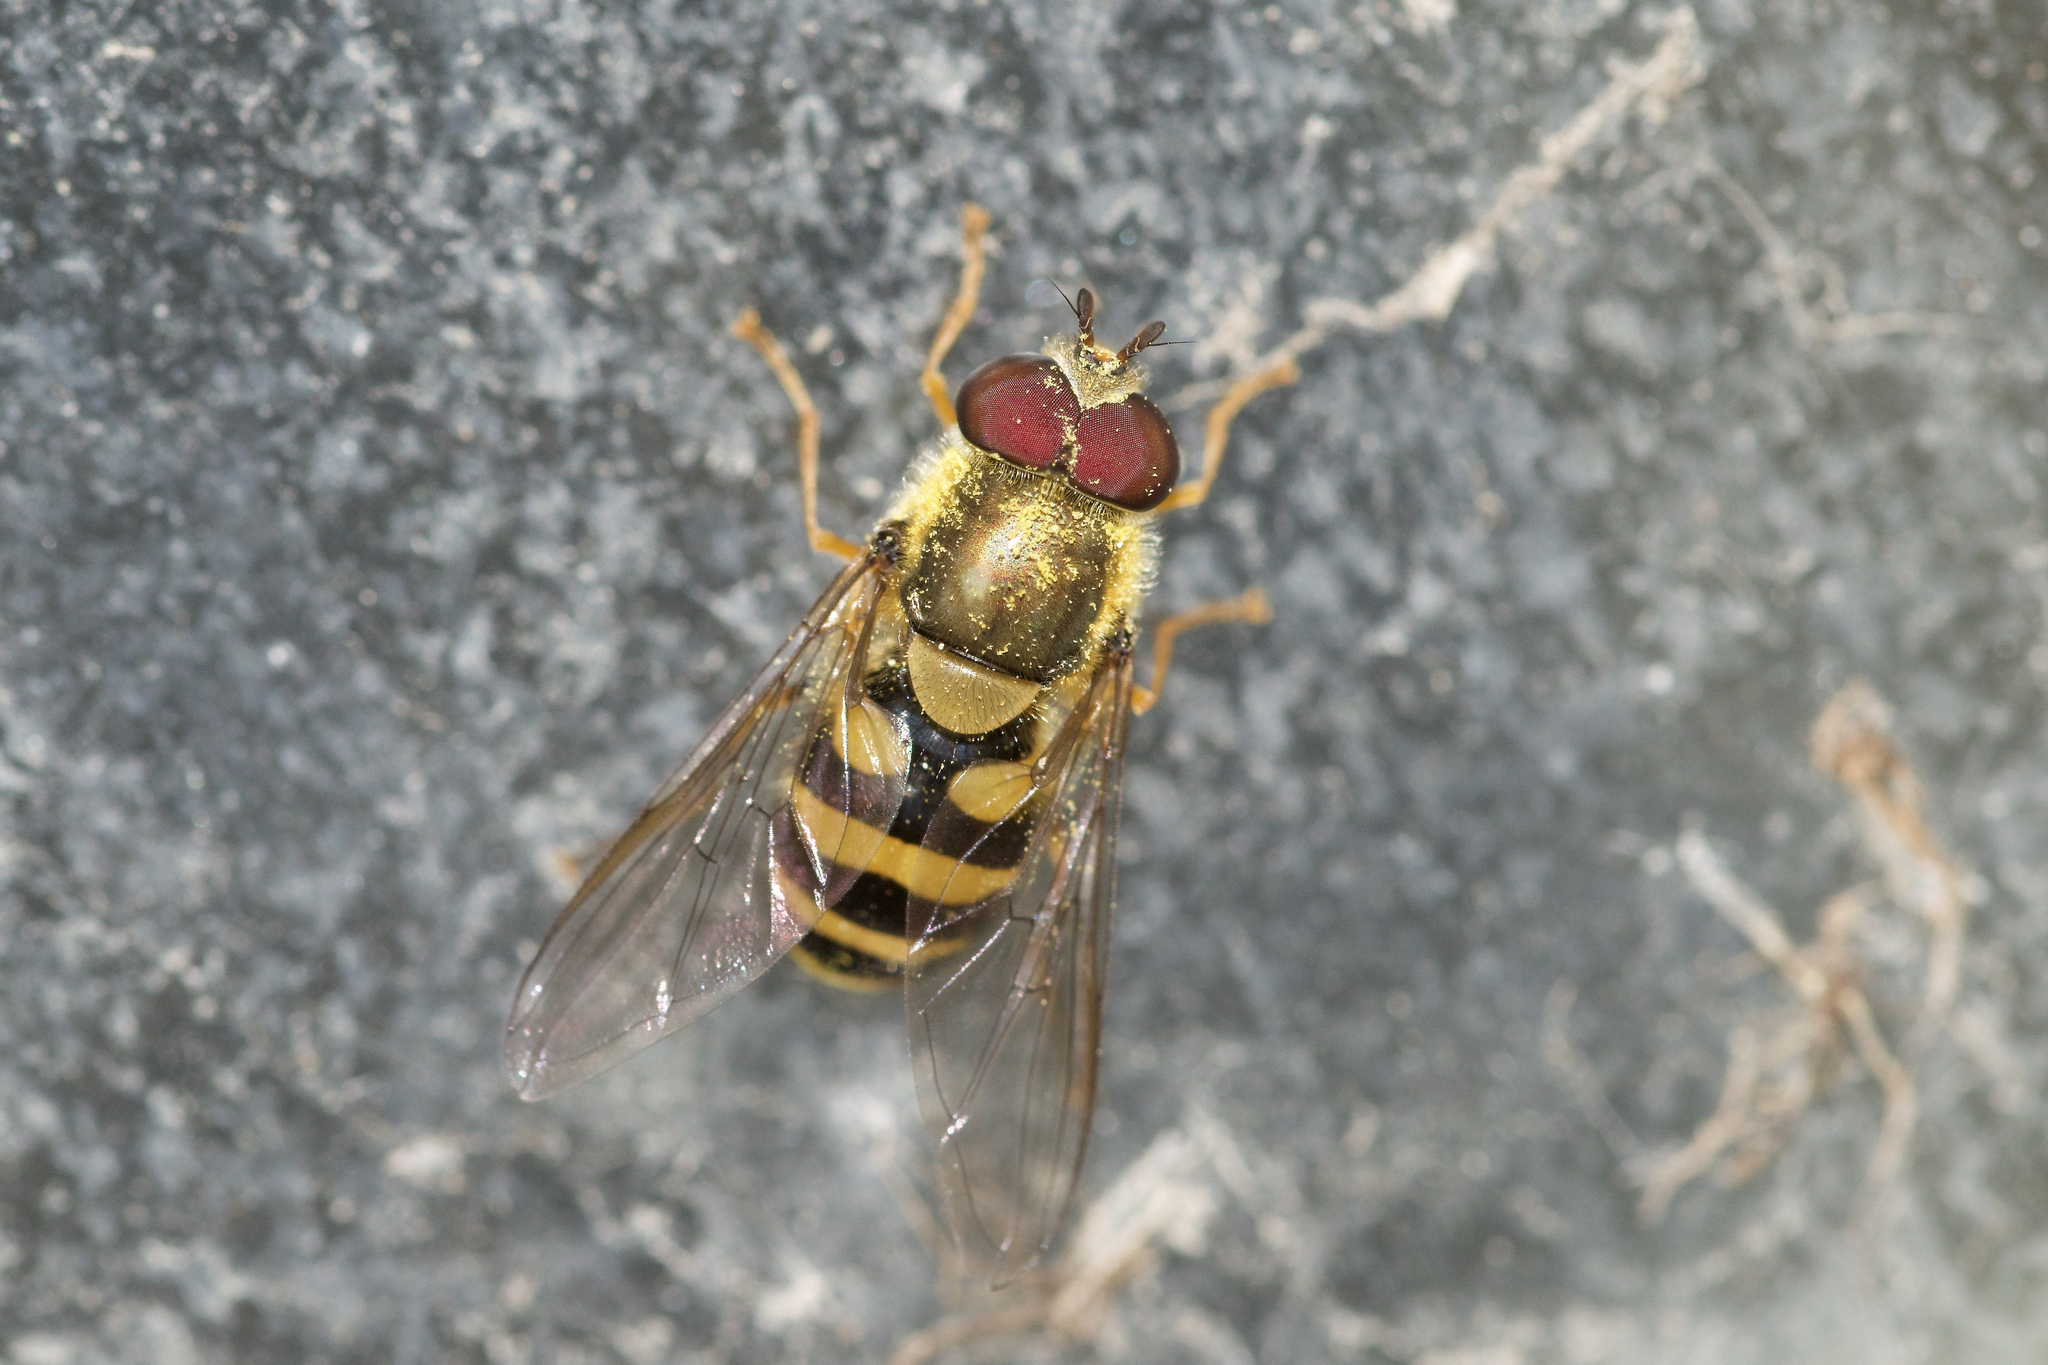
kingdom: Animalia
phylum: Arthropoda
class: Insecta
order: Diptera
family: Syrphidae
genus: Syrphus
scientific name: Syrphus
